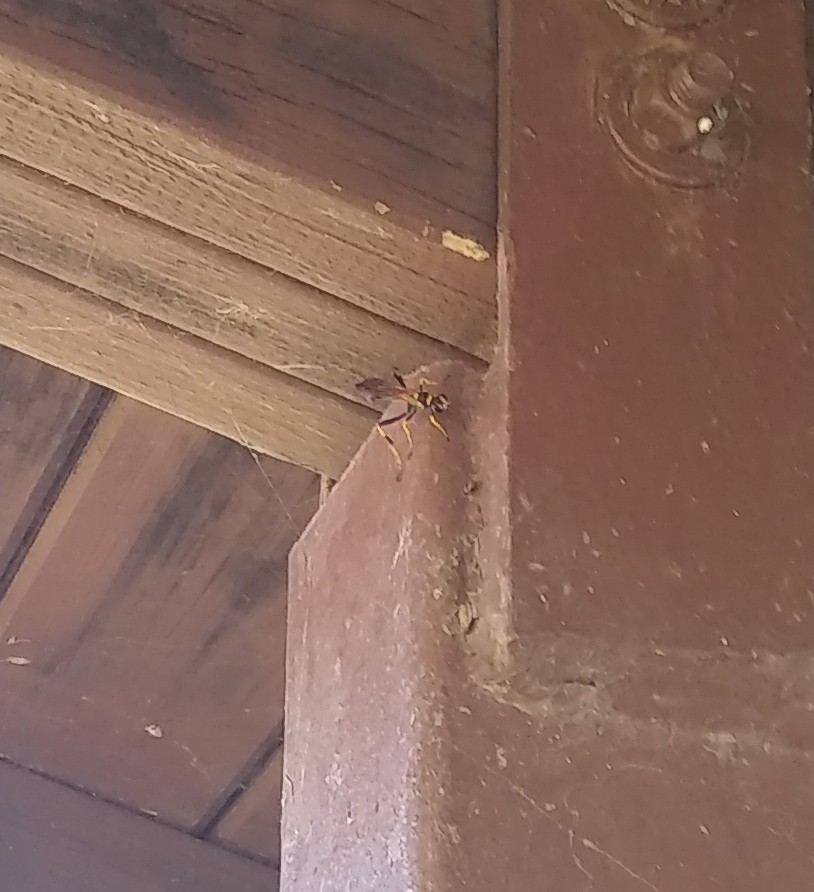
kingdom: Animalia
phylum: Arthropoda
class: Insecta
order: Hymenoptera
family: Sphecidae
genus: Sceliphron
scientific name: Sceliphron caementarium
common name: Mud dauber
